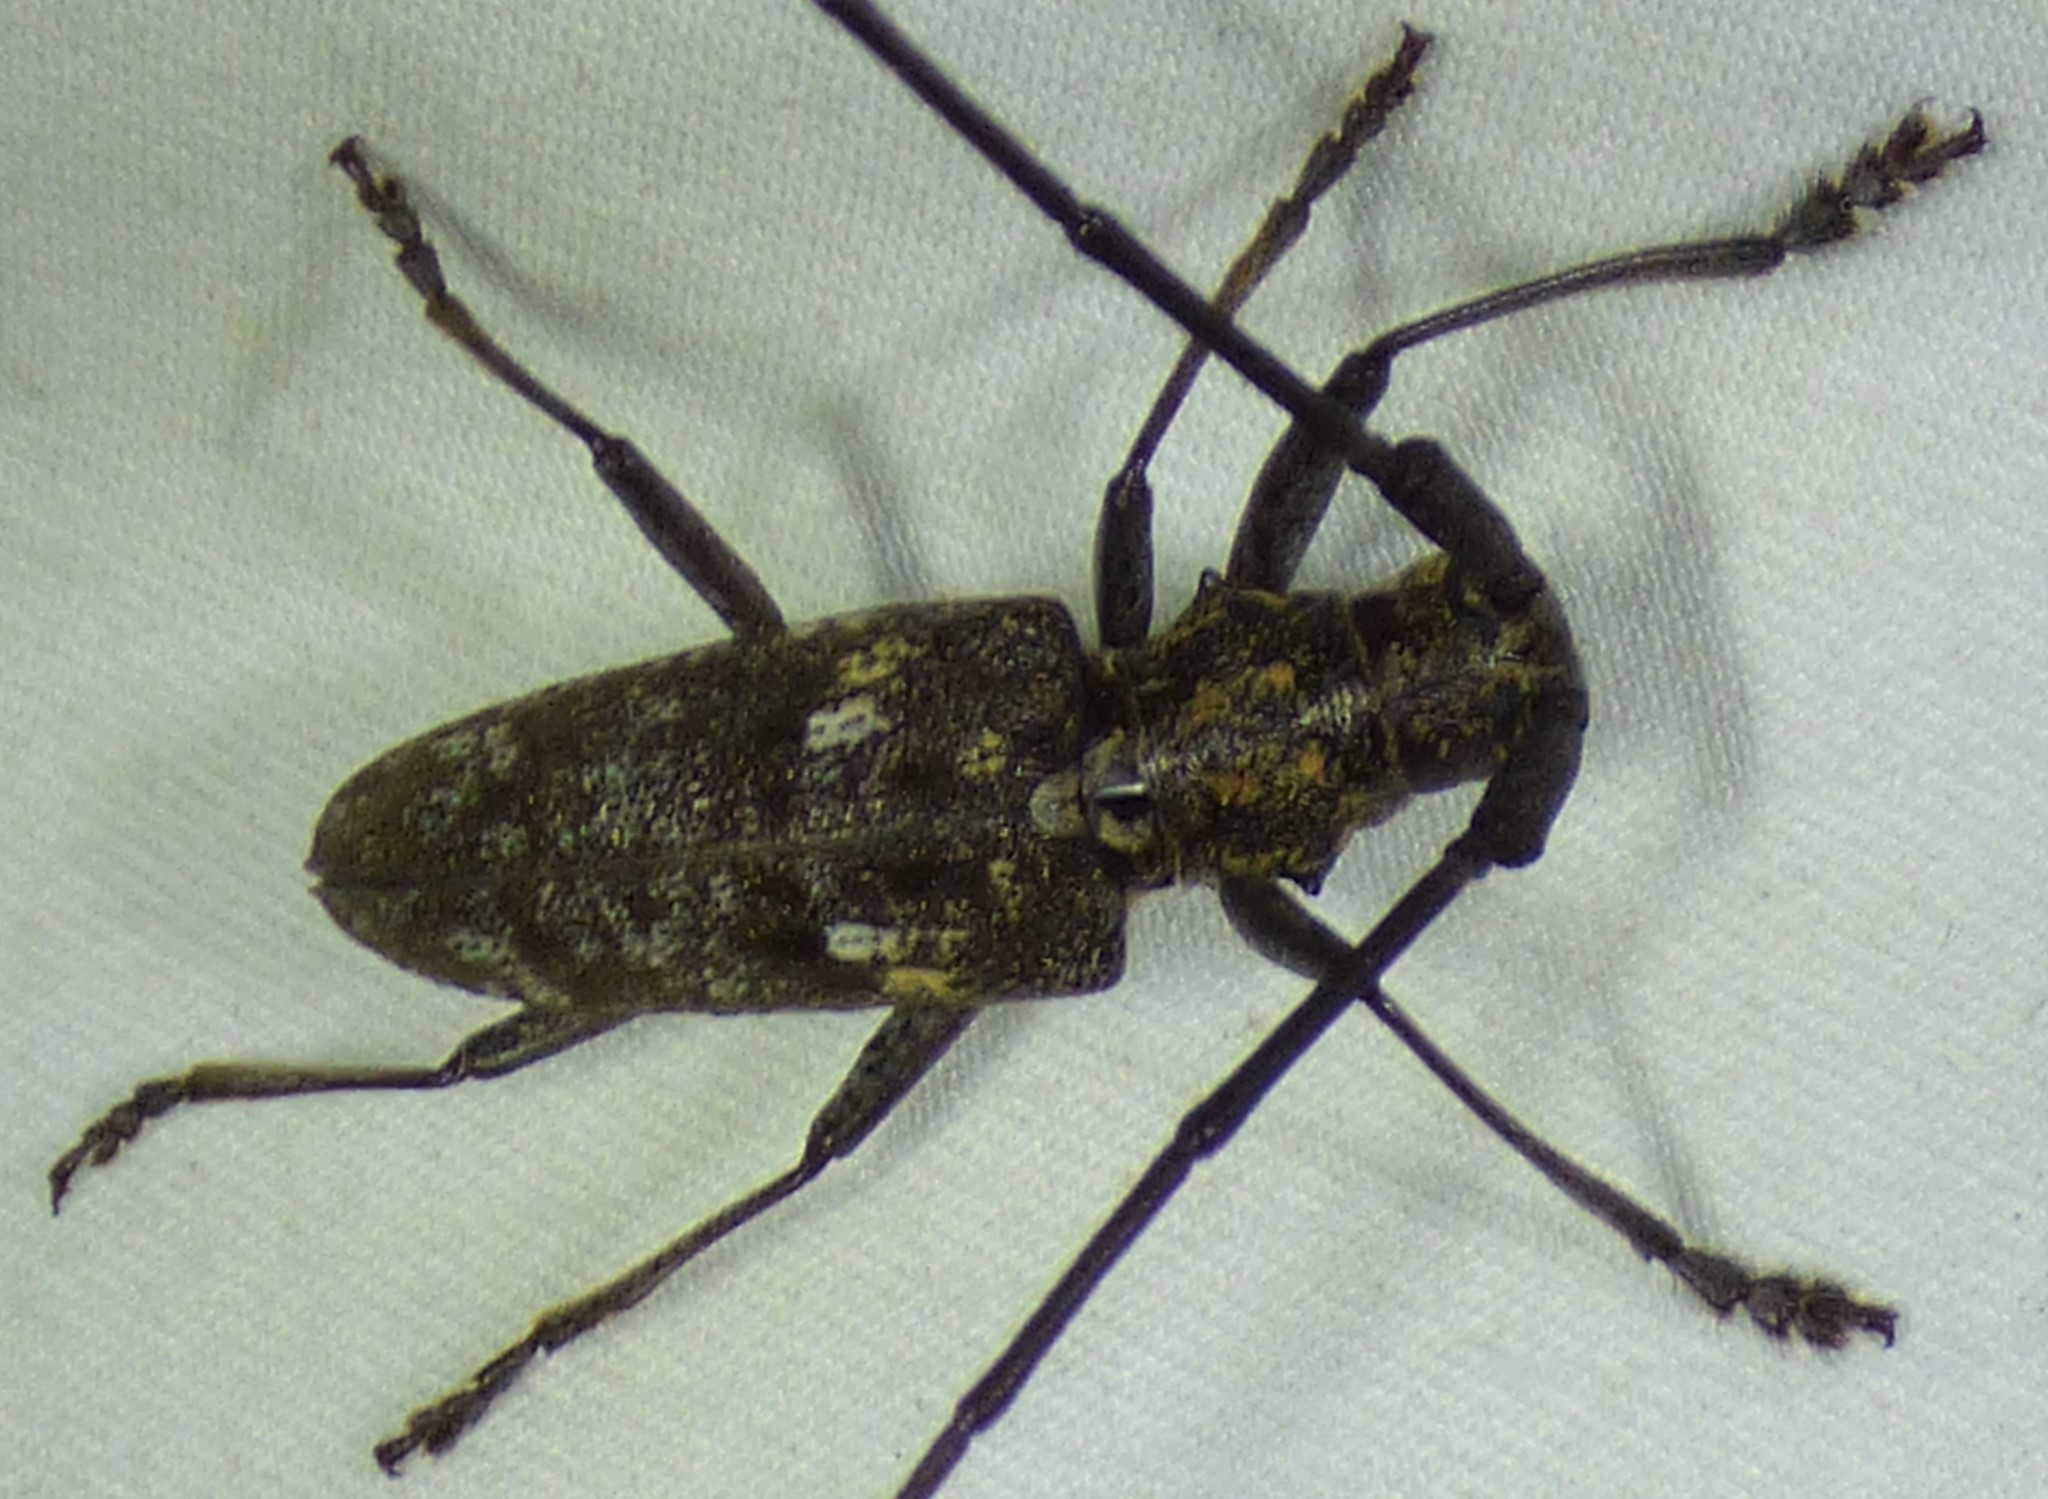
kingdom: Animalia
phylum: Arthropoda
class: Insecta
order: Coleoptera
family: Cerambycidae
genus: Monochamus
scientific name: Monochamus carolinensis
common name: Carolina pine sawyer
